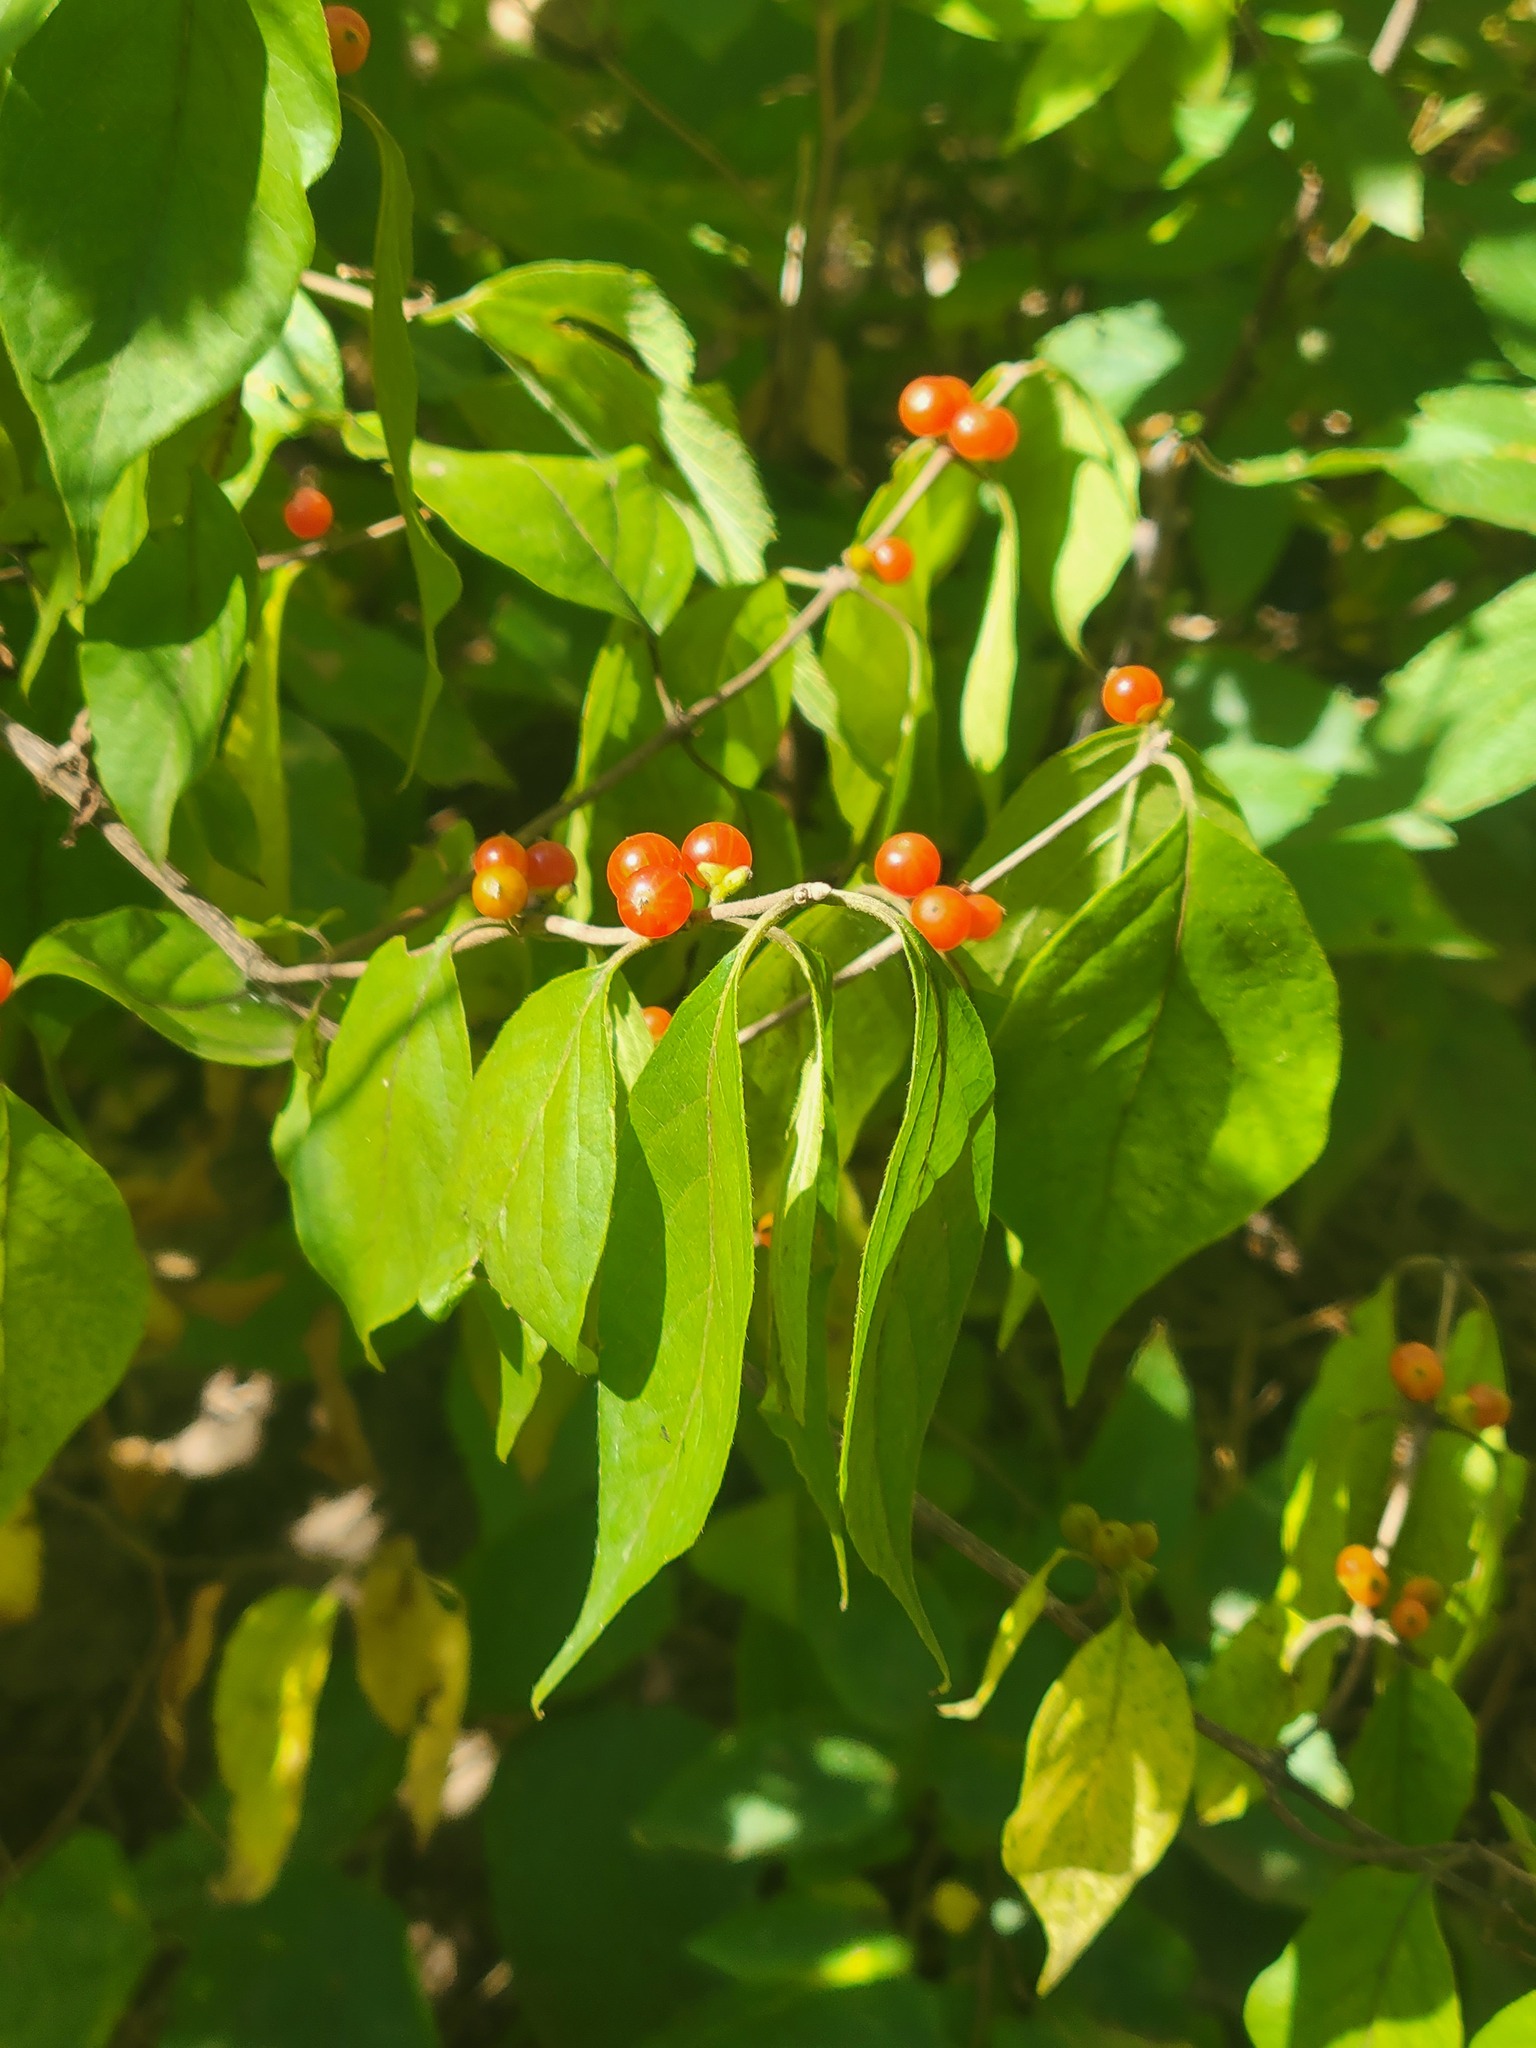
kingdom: Plantae
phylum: Tracheophyta
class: Magnoliopsida
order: Dipsacales
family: Caprifoliaceae
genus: Lonicera
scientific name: Lonicera maackii
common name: Amur honeysuckle
